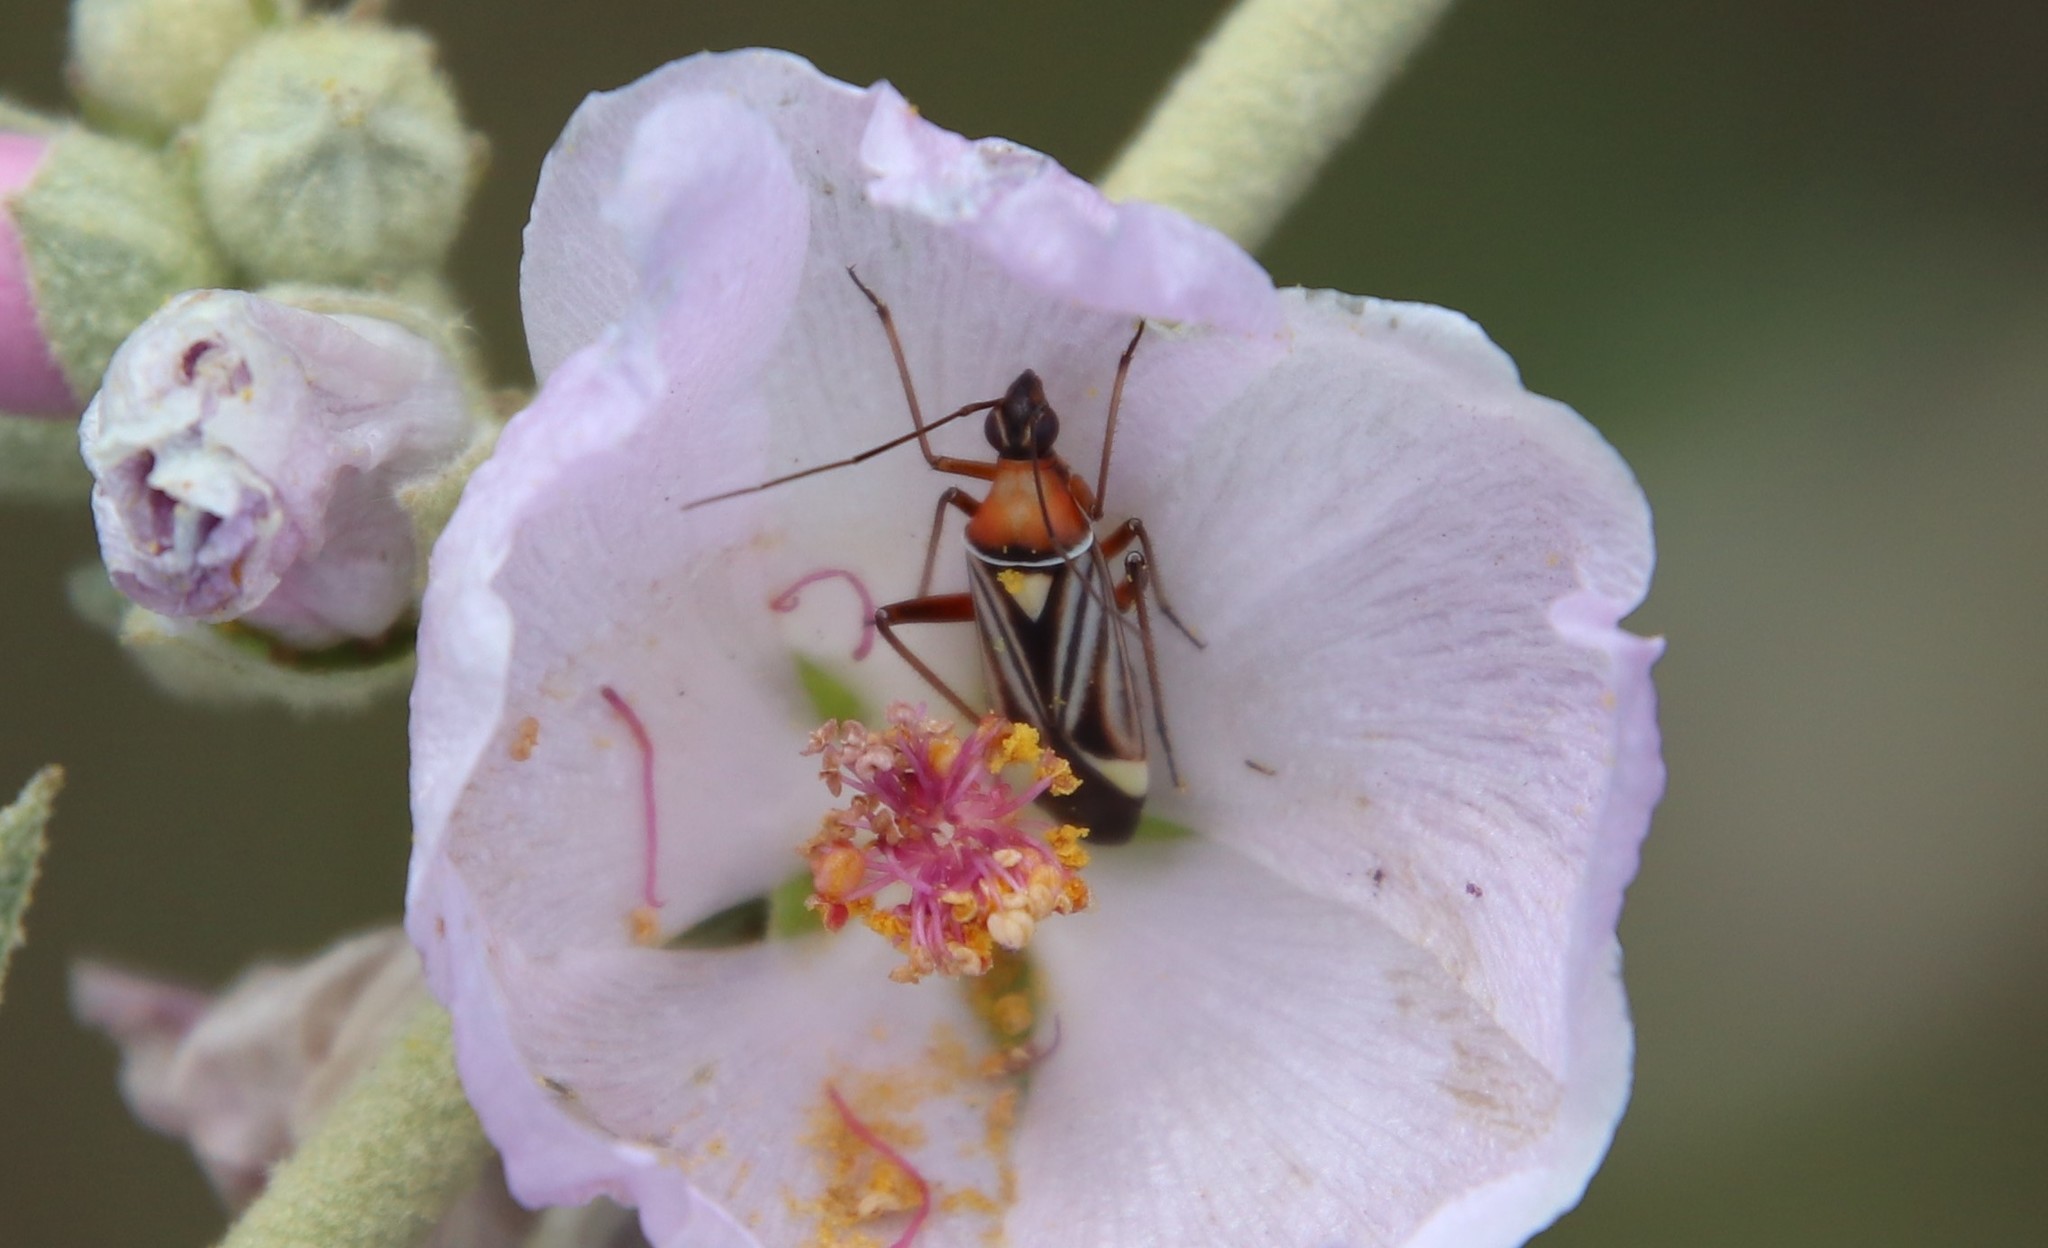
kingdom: Animalia
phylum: Arthropoda
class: Insecta
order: Hemiptera
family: Miridae
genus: Closterocoris
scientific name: Closterocoris amoenus
